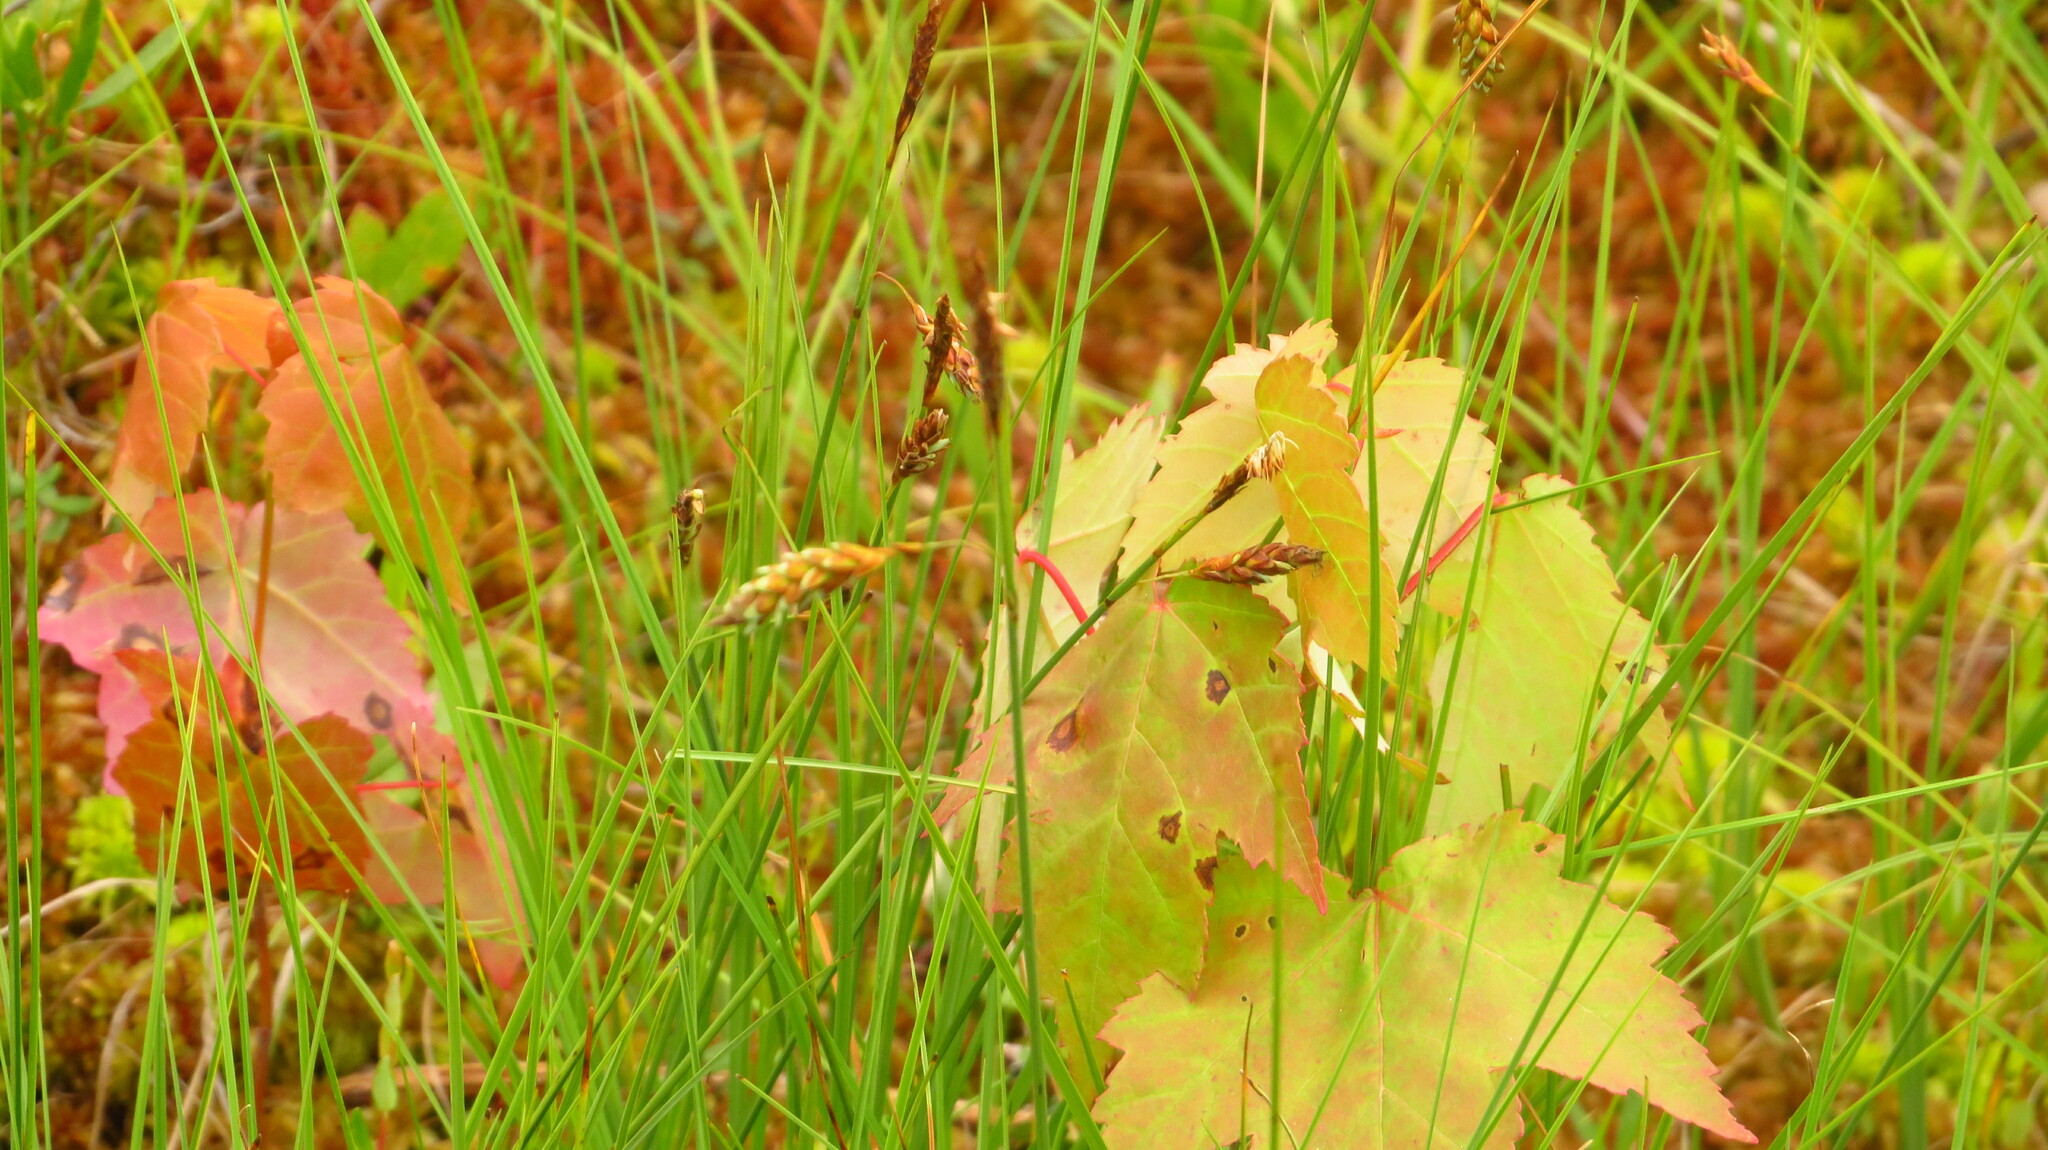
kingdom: Plantae
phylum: Tracheophyta
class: Liliopsida
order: Poales
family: Cyperaceae
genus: Carex
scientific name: Carex limosa
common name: Bog sedge
